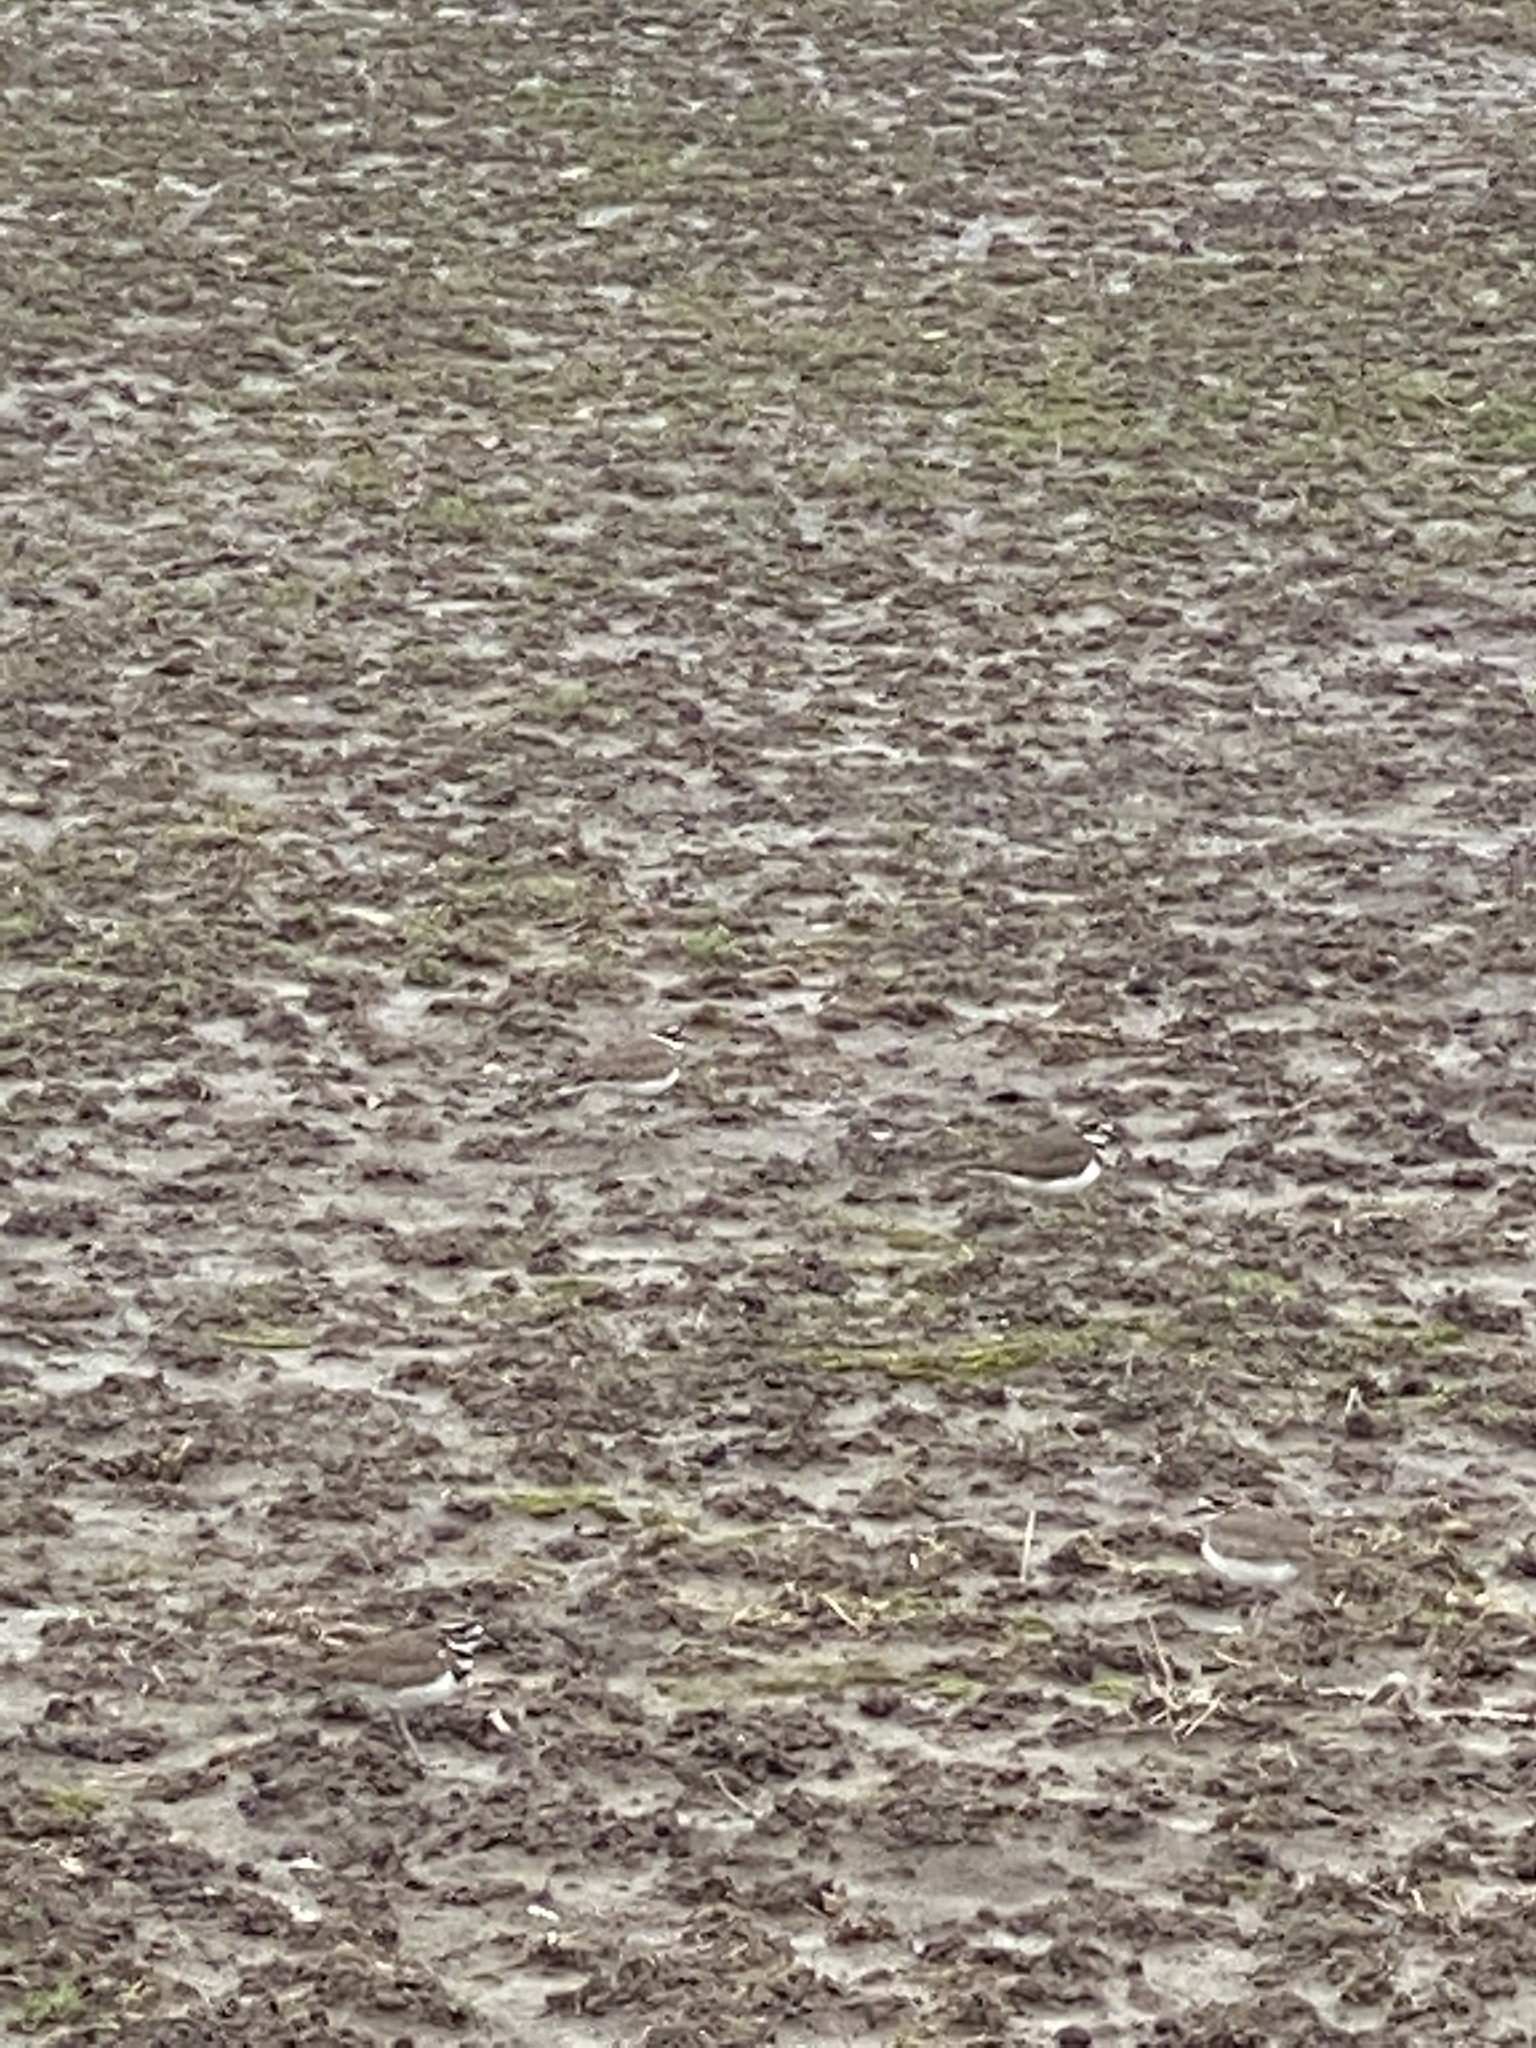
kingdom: Animalia
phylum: Chordata
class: Aves
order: Charadriiformes
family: Charadriidae
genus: Charadrius
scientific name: Charadrius vociferus
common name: Killdeer
